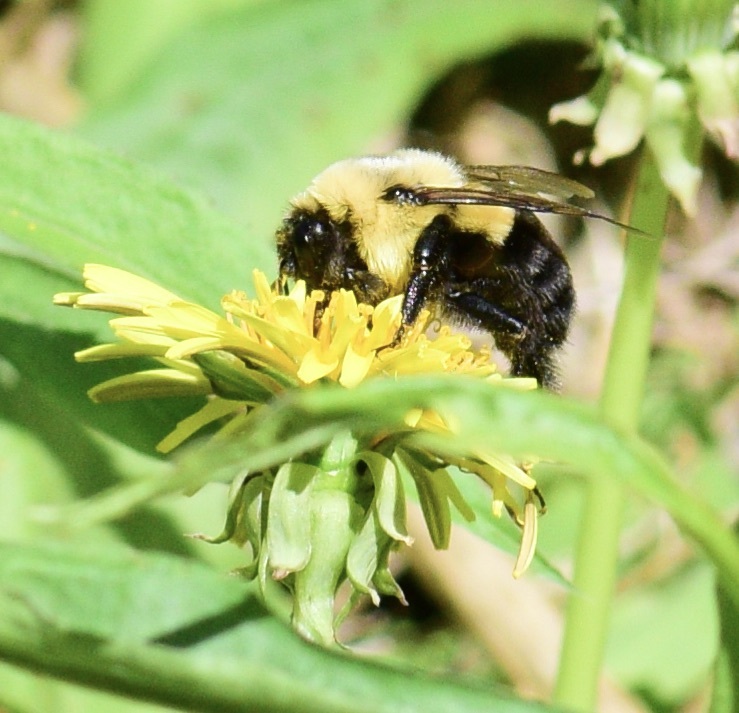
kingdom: Animalia
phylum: Arthropoda
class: Insecta
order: Hymenoptera
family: Apidae
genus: Bombus
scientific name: Bombus impatiens
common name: Common eastern bumble bee
